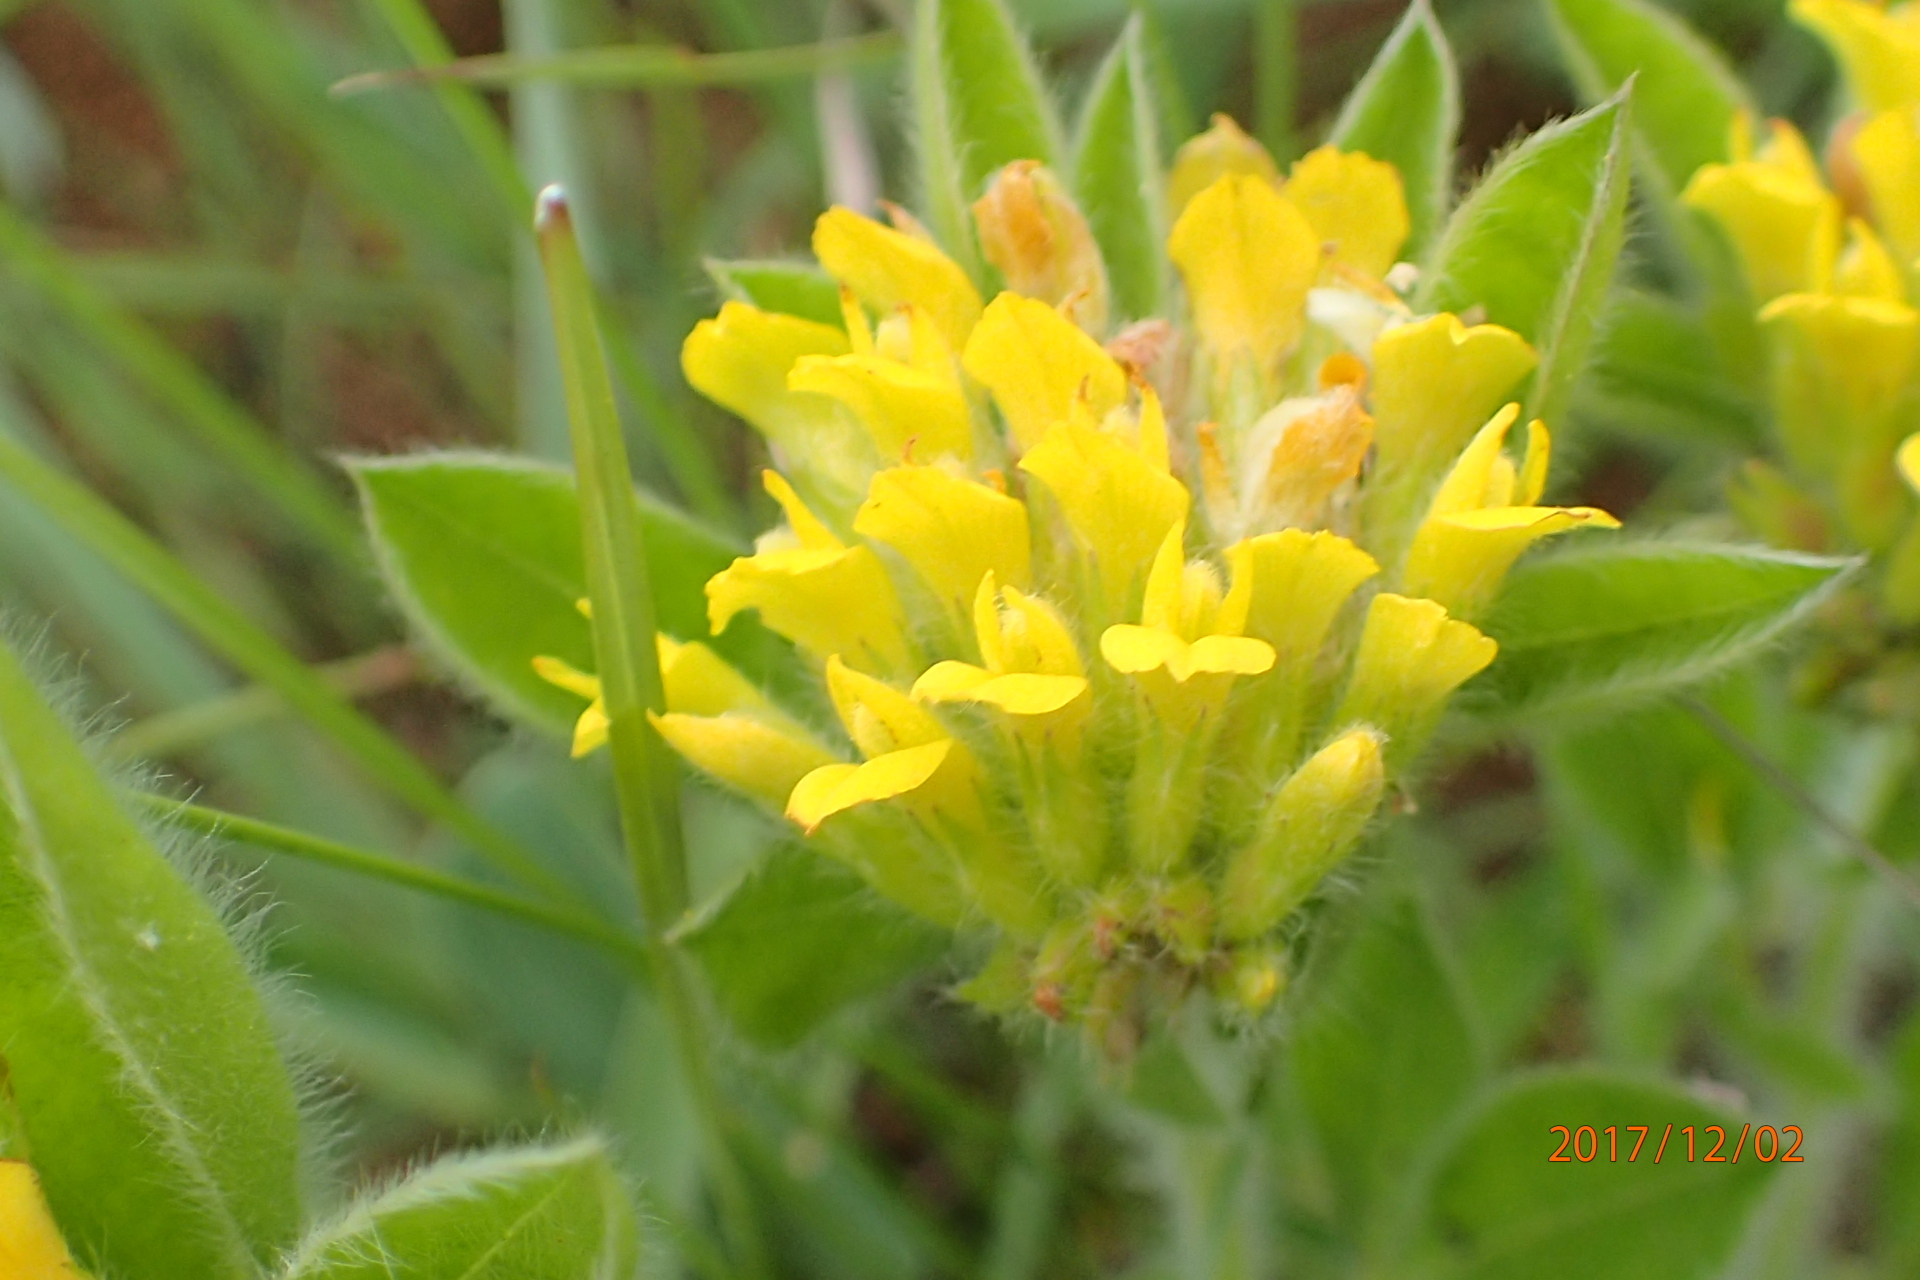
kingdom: Plantae
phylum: Tracheophyta
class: Magnoliopsida
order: Fabales
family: Fabaceae
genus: Leobordea
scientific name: Leobordea corymbosa
